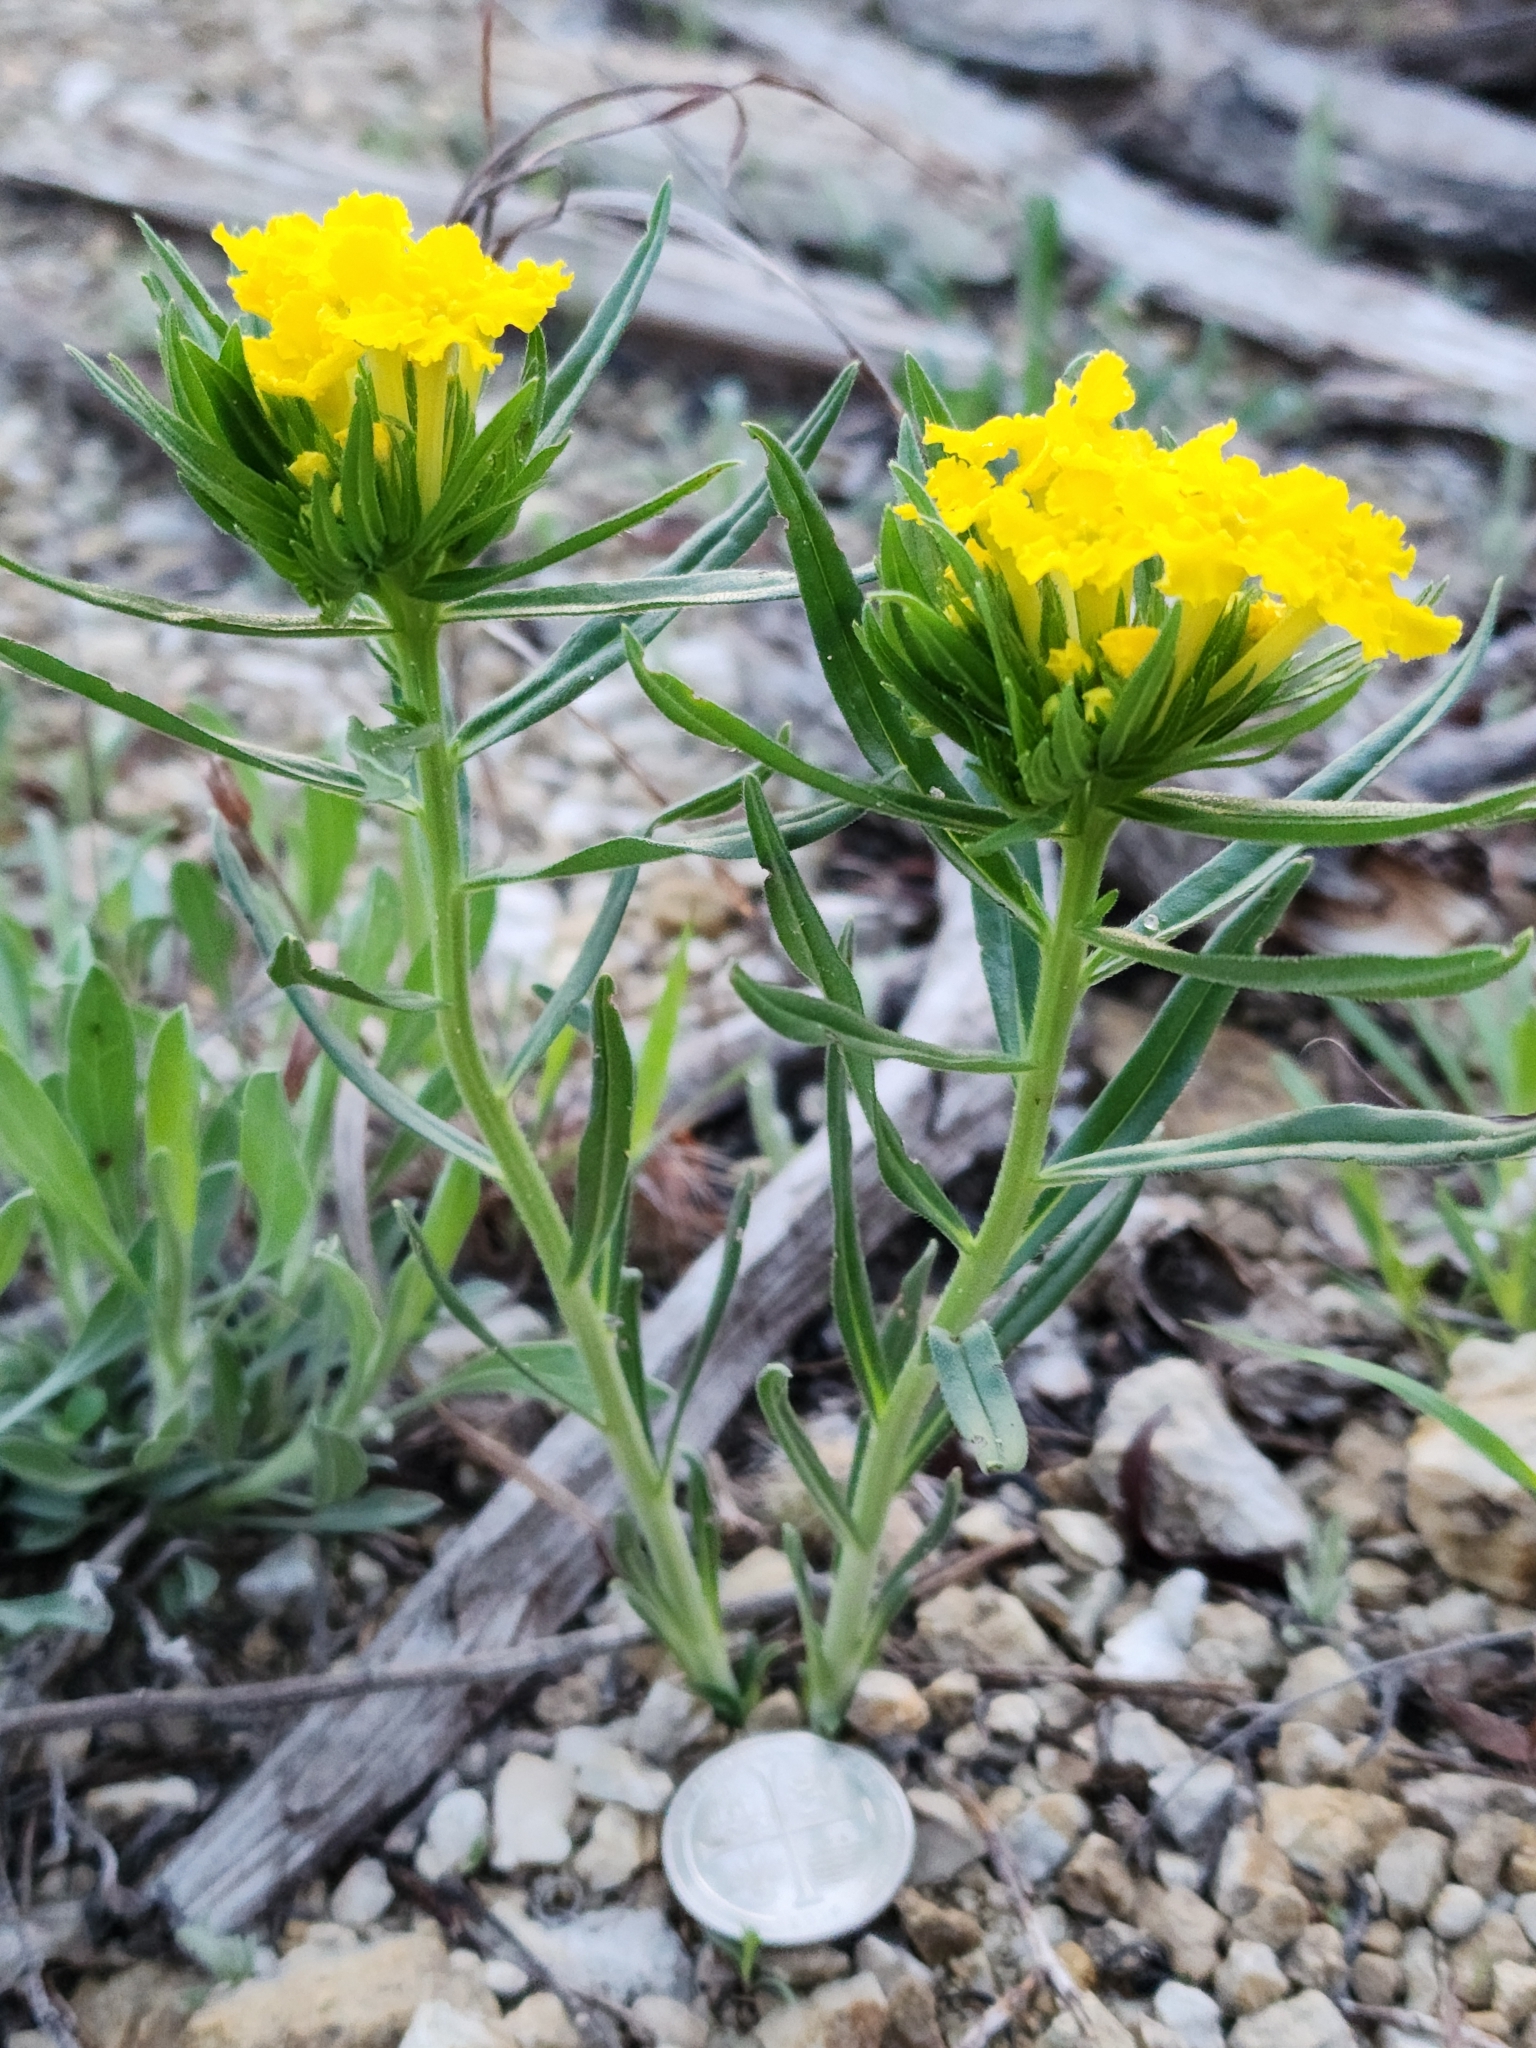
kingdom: Plantae
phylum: Tracheophyta
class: Magnoliopsida
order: Boraginales
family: Boraginaceae
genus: Lithospermum
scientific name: Lithospermum incisum
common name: Fringed gromwell
